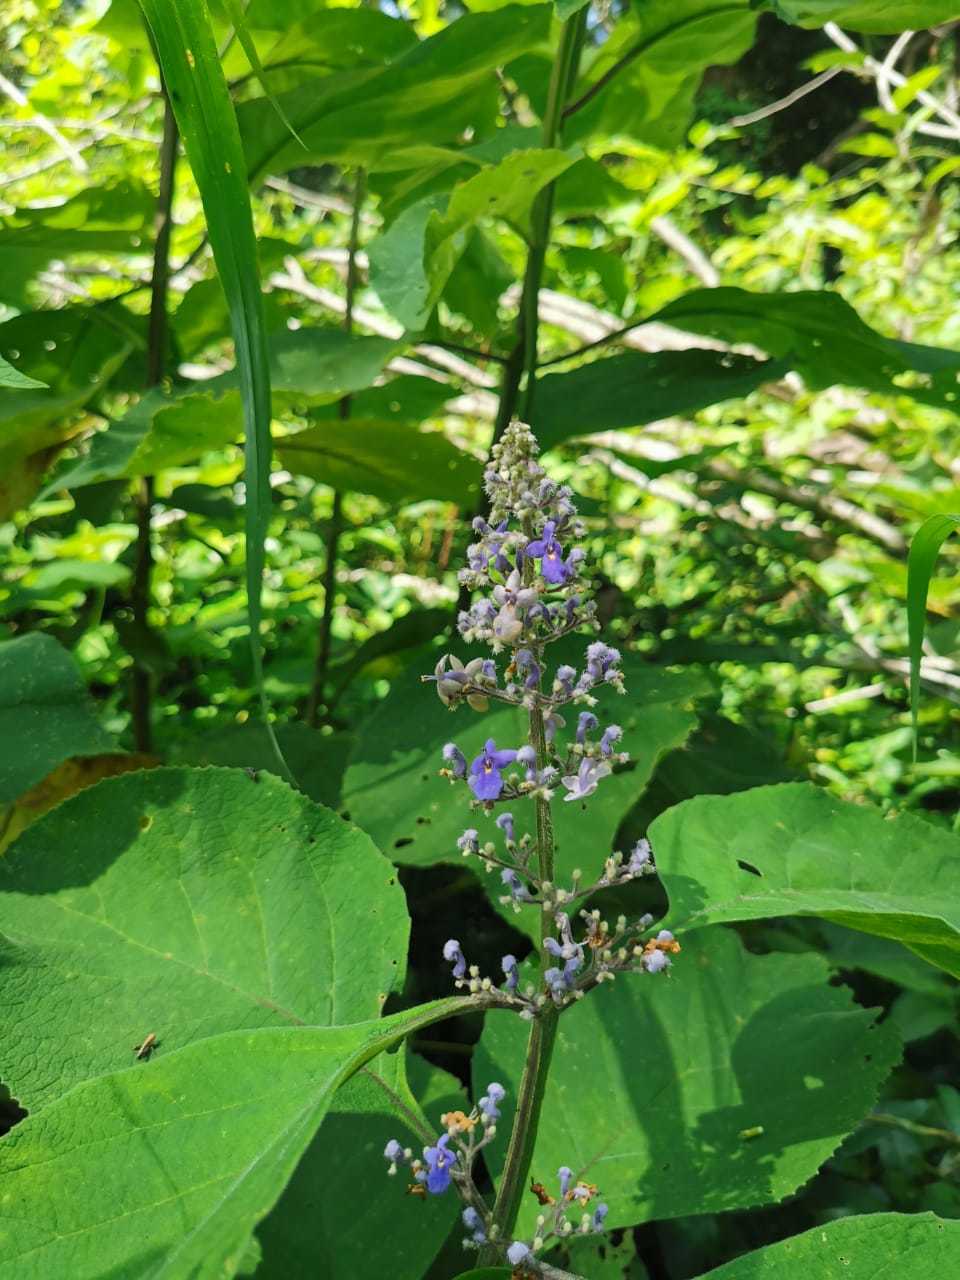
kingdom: Plantae
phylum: Tracheophyta
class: Magnoliopsida
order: Lamiales
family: Lamiaceae
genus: Vitex
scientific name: Vitex negundo
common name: Chinese chastetree
